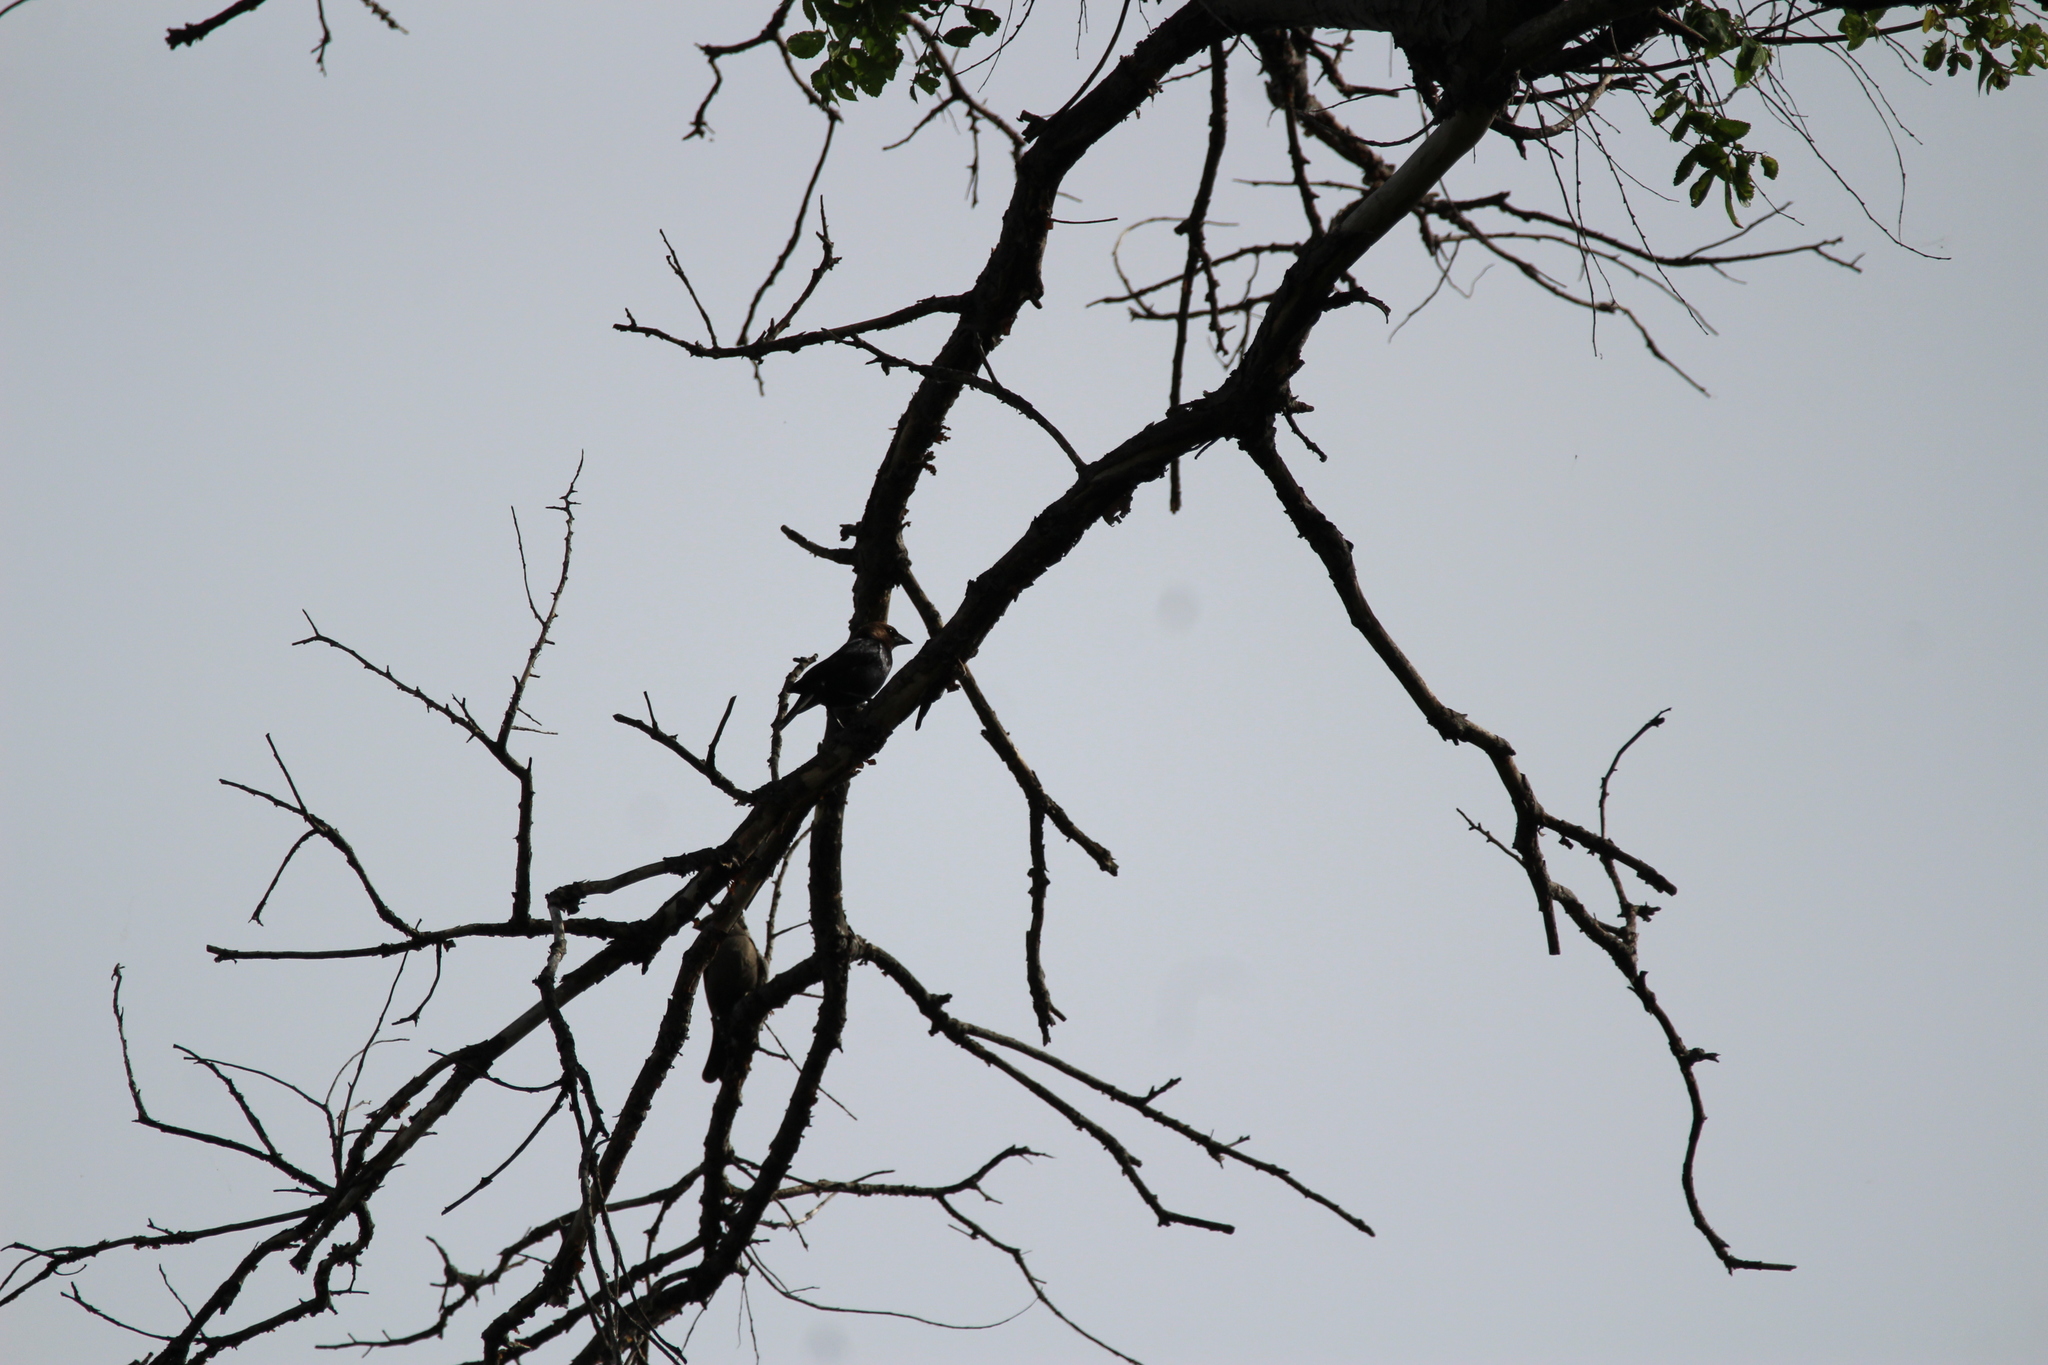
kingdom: Animalia
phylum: Chordata
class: Aves
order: Passeriformes
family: Icteridae
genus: Molothrus
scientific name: Molothrus ater
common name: Brown-headed cowbird
